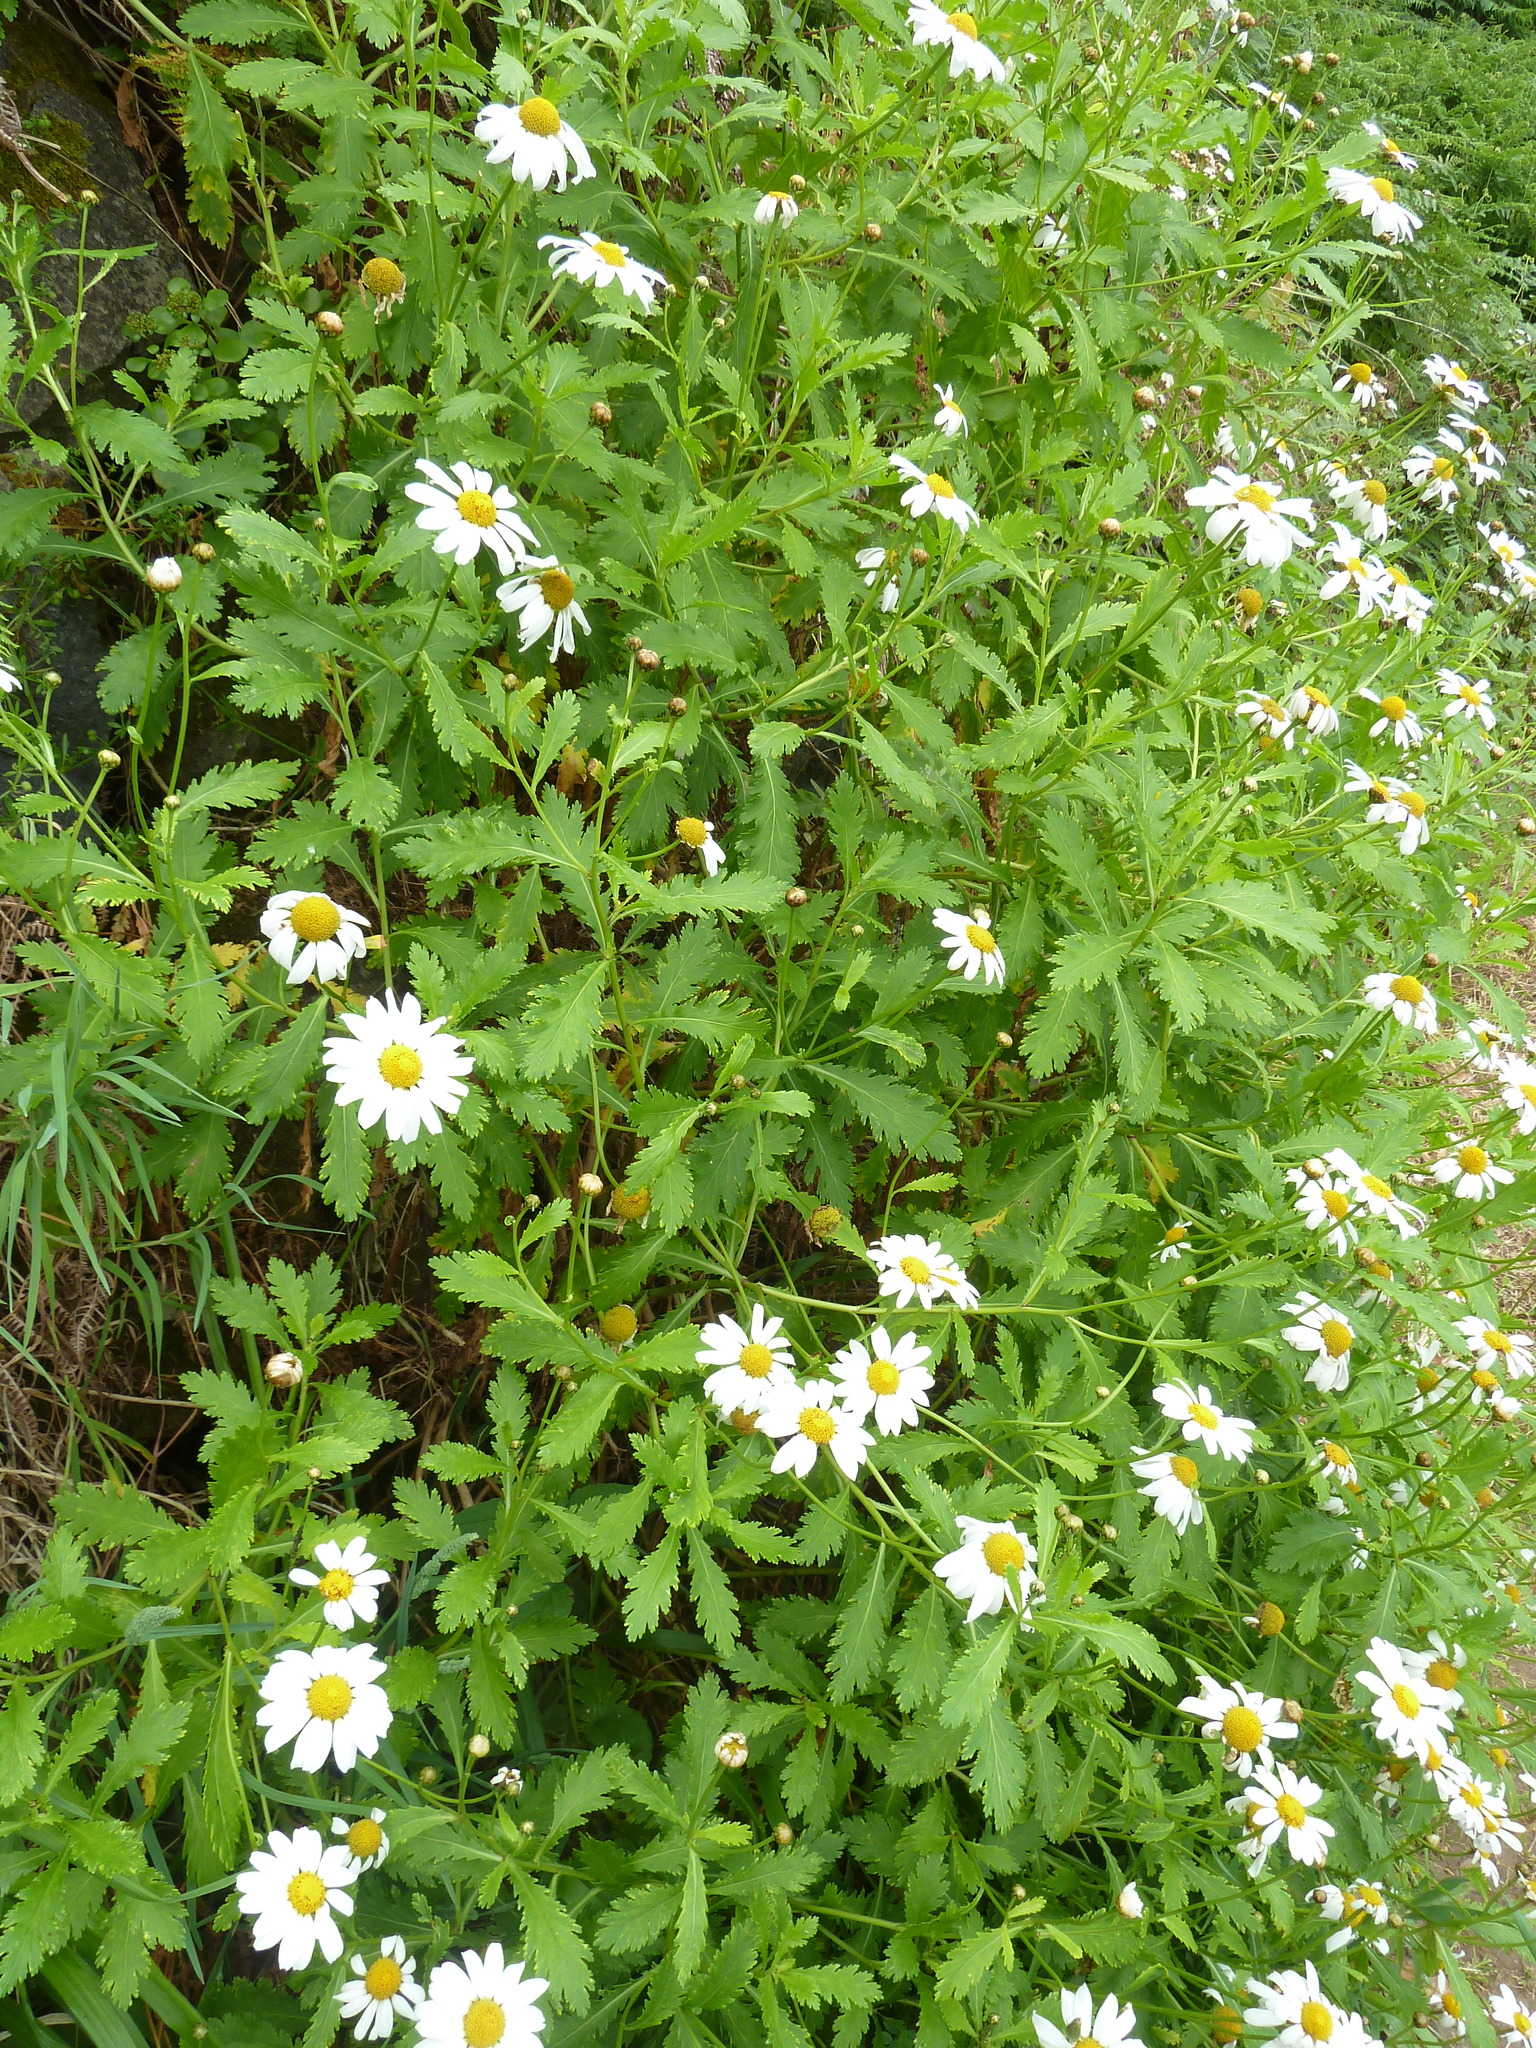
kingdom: Plantae
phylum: Tracheophyta
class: Magnoliopsida
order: Asterales
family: Asteraceae
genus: Argyranthemum
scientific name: Argyranthemum pinnatifidum
